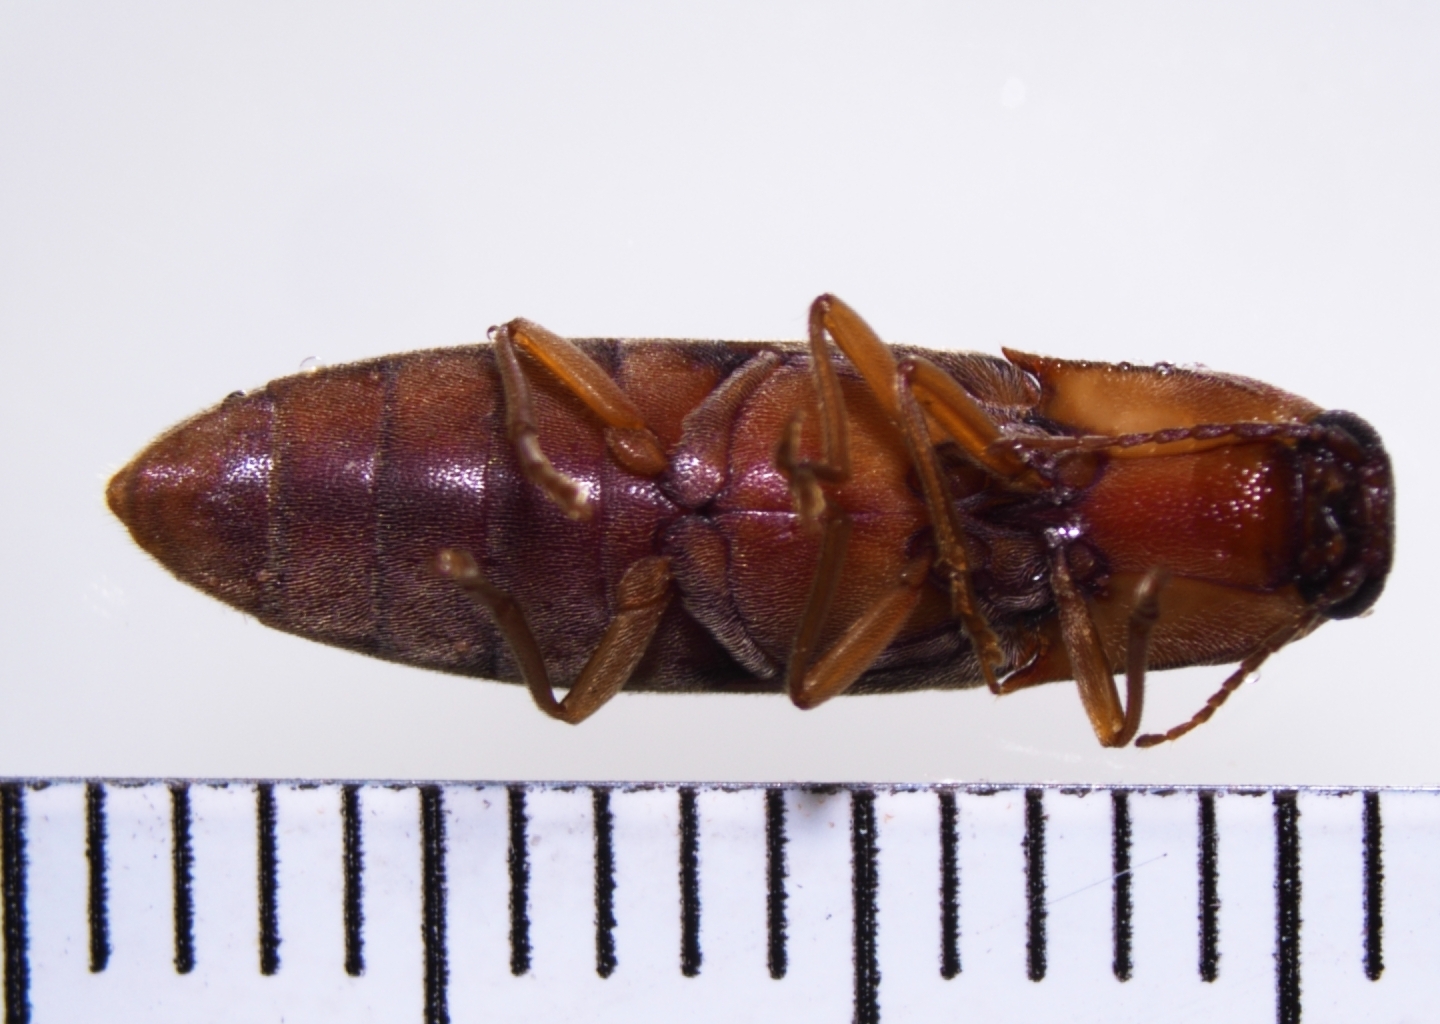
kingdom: Animalia
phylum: Arthropoda
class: Insecta
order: Coleoptera
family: Elateridae
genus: Simodactylus
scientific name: Simodactylus cinnamomeus
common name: Click beetle
